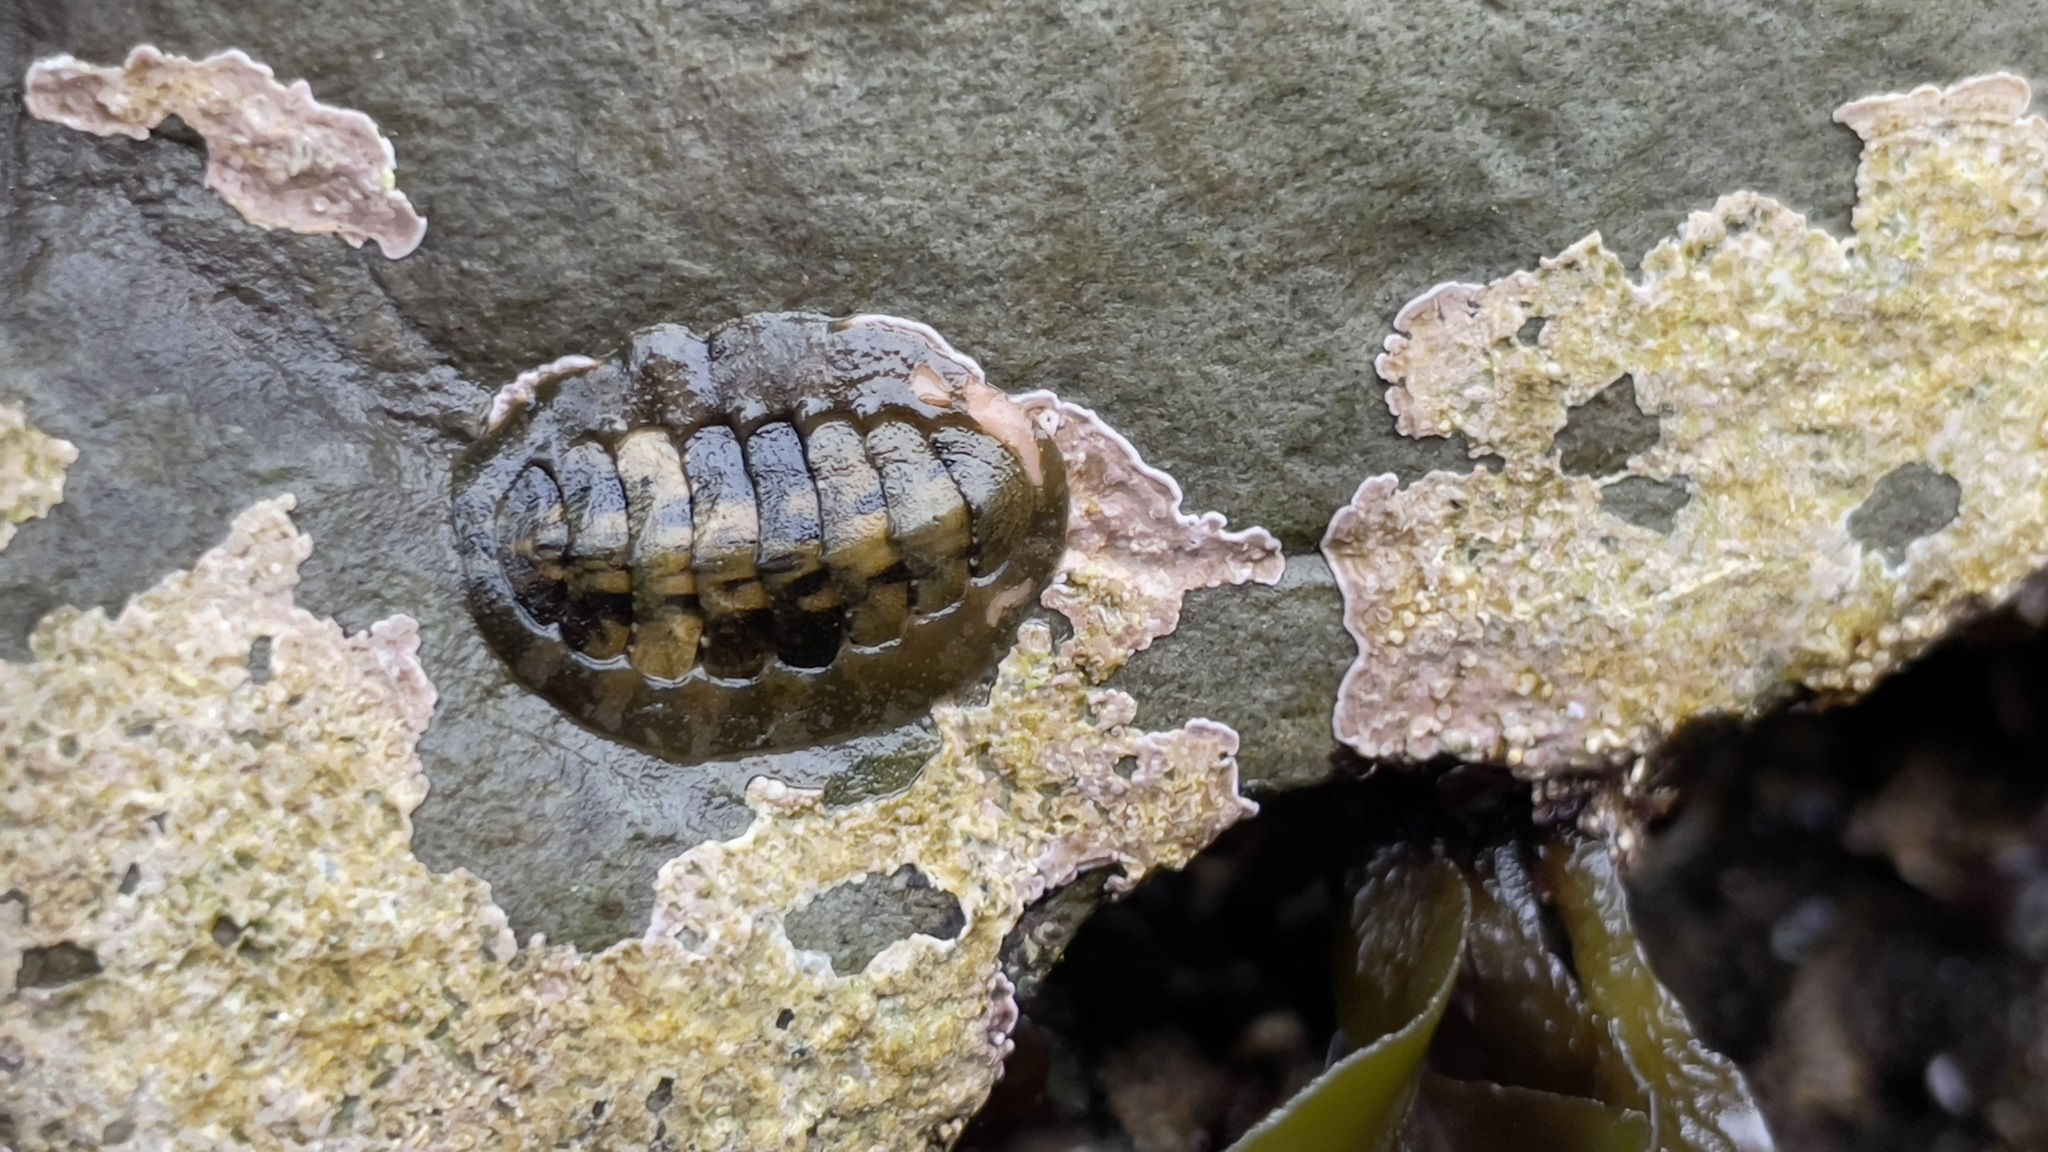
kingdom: Animalia
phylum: Mollusca
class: Polyplacophora
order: Chitonida
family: Tonicellidae
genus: Cyanoplax
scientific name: Cyanoplax hartwegii
